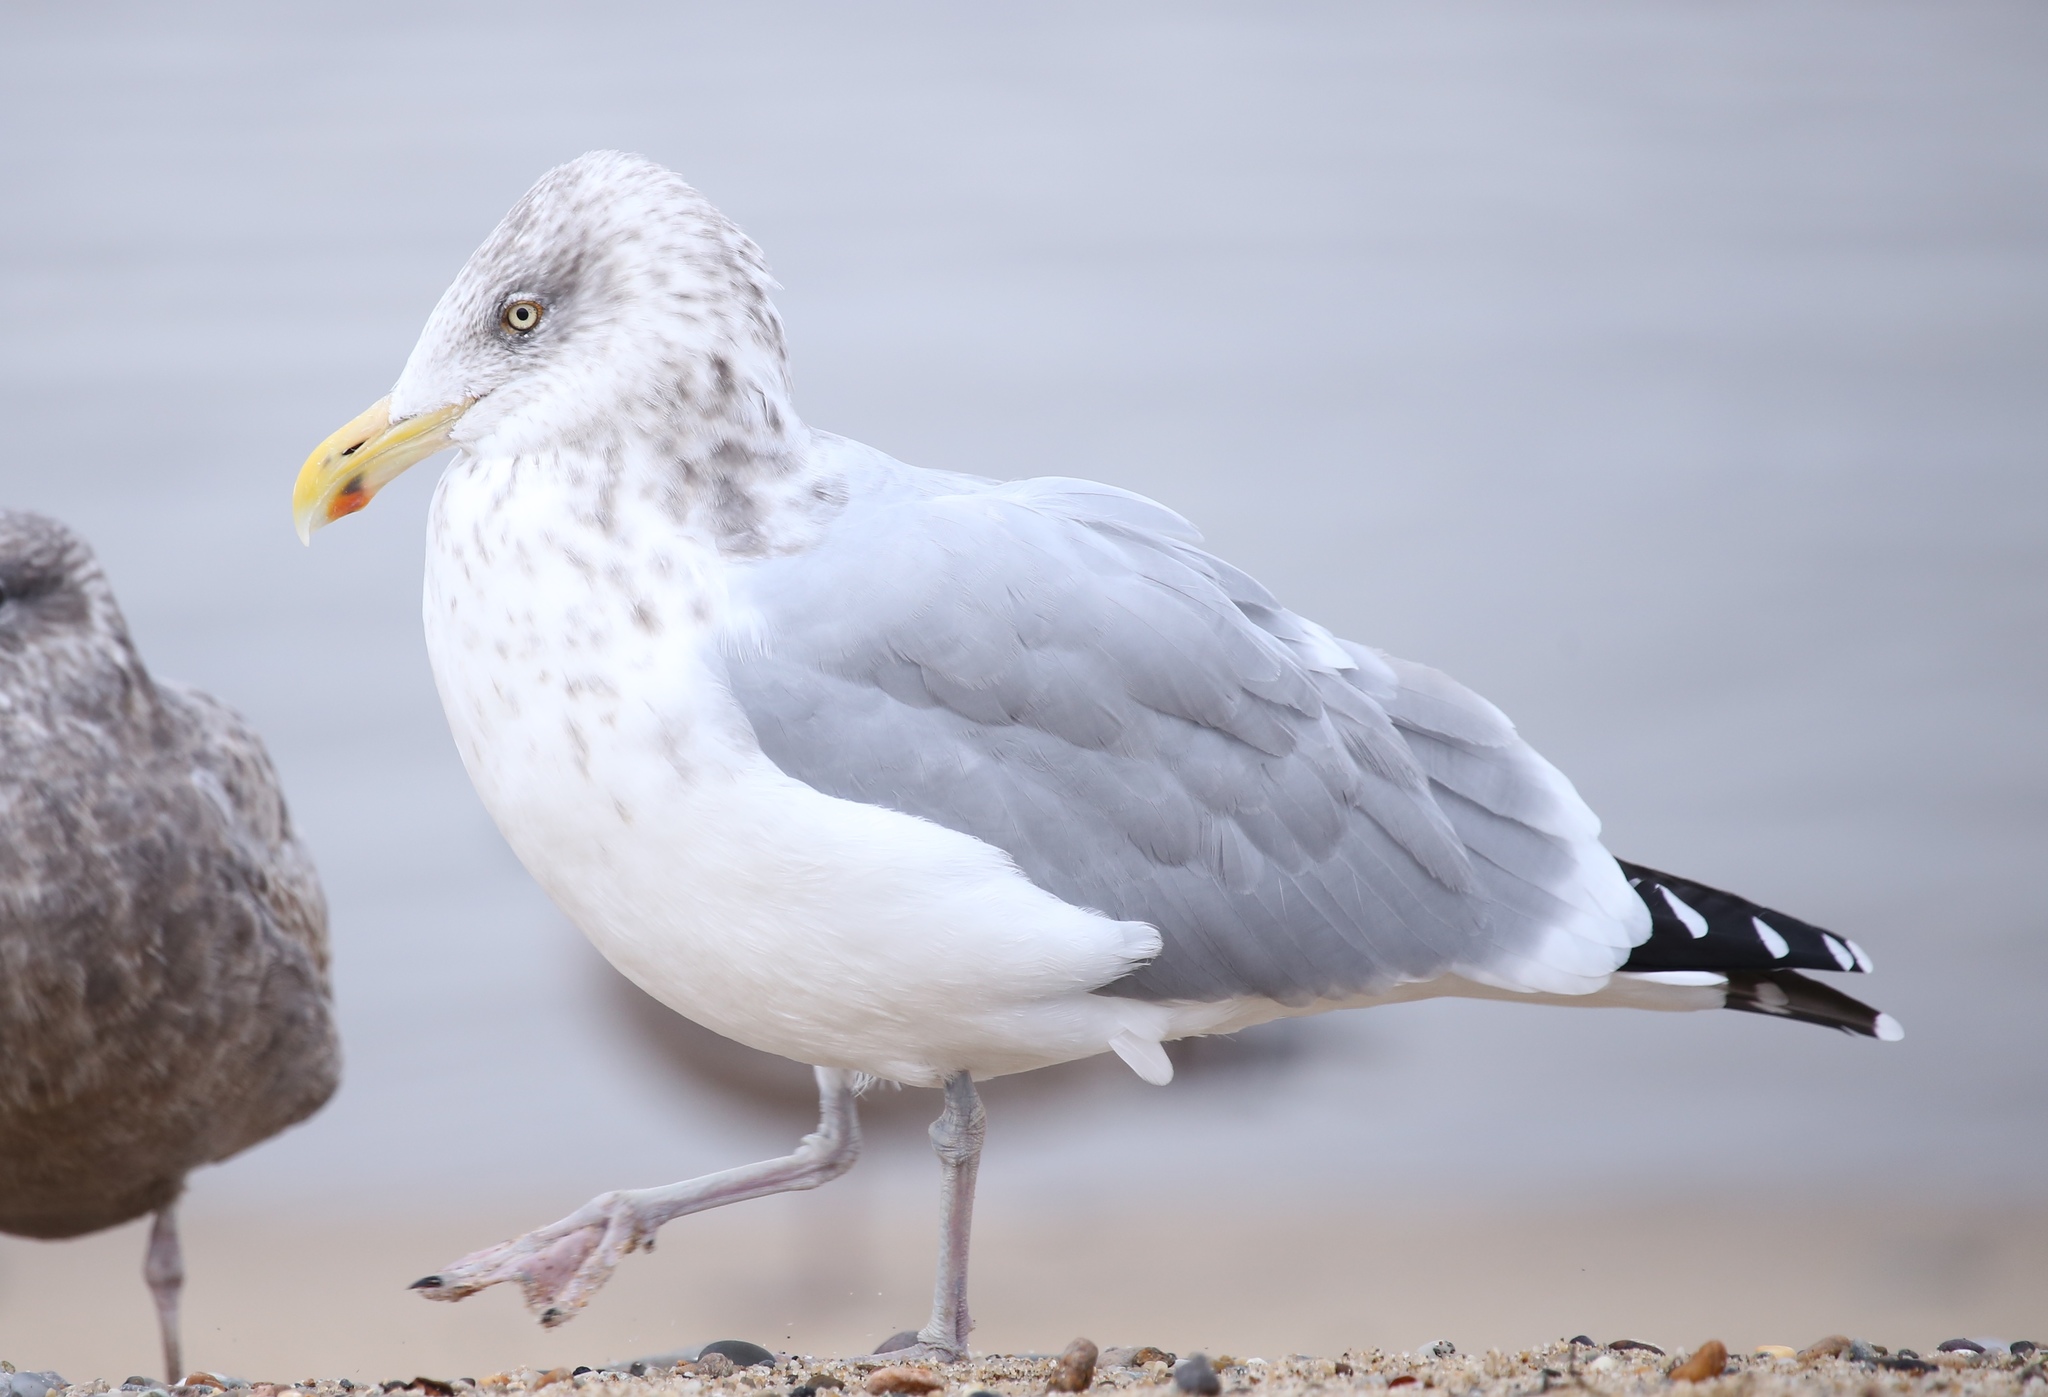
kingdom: Animalia
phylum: Chordata
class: Aves
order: Charadriiformes
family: Laridae
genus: Larus
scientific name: Larus argentatus
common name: Herring gull
